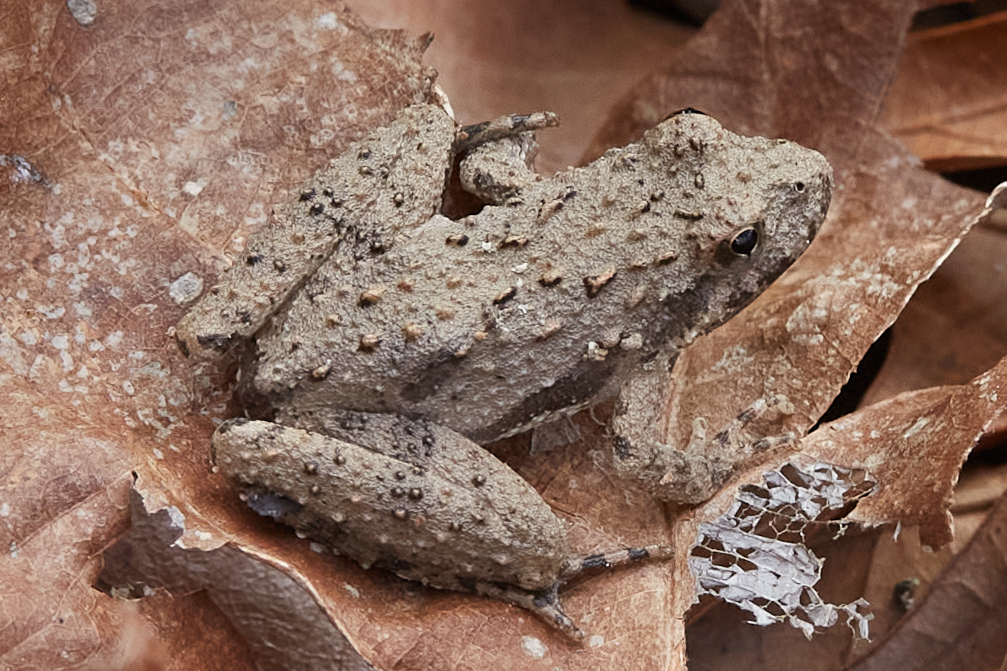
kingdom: Animalia
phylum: Chordata
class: Amphibia
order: Anura
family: Hylidae
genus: Acris
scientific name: Acris blanchardi
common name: Blanchard's cricket frog
